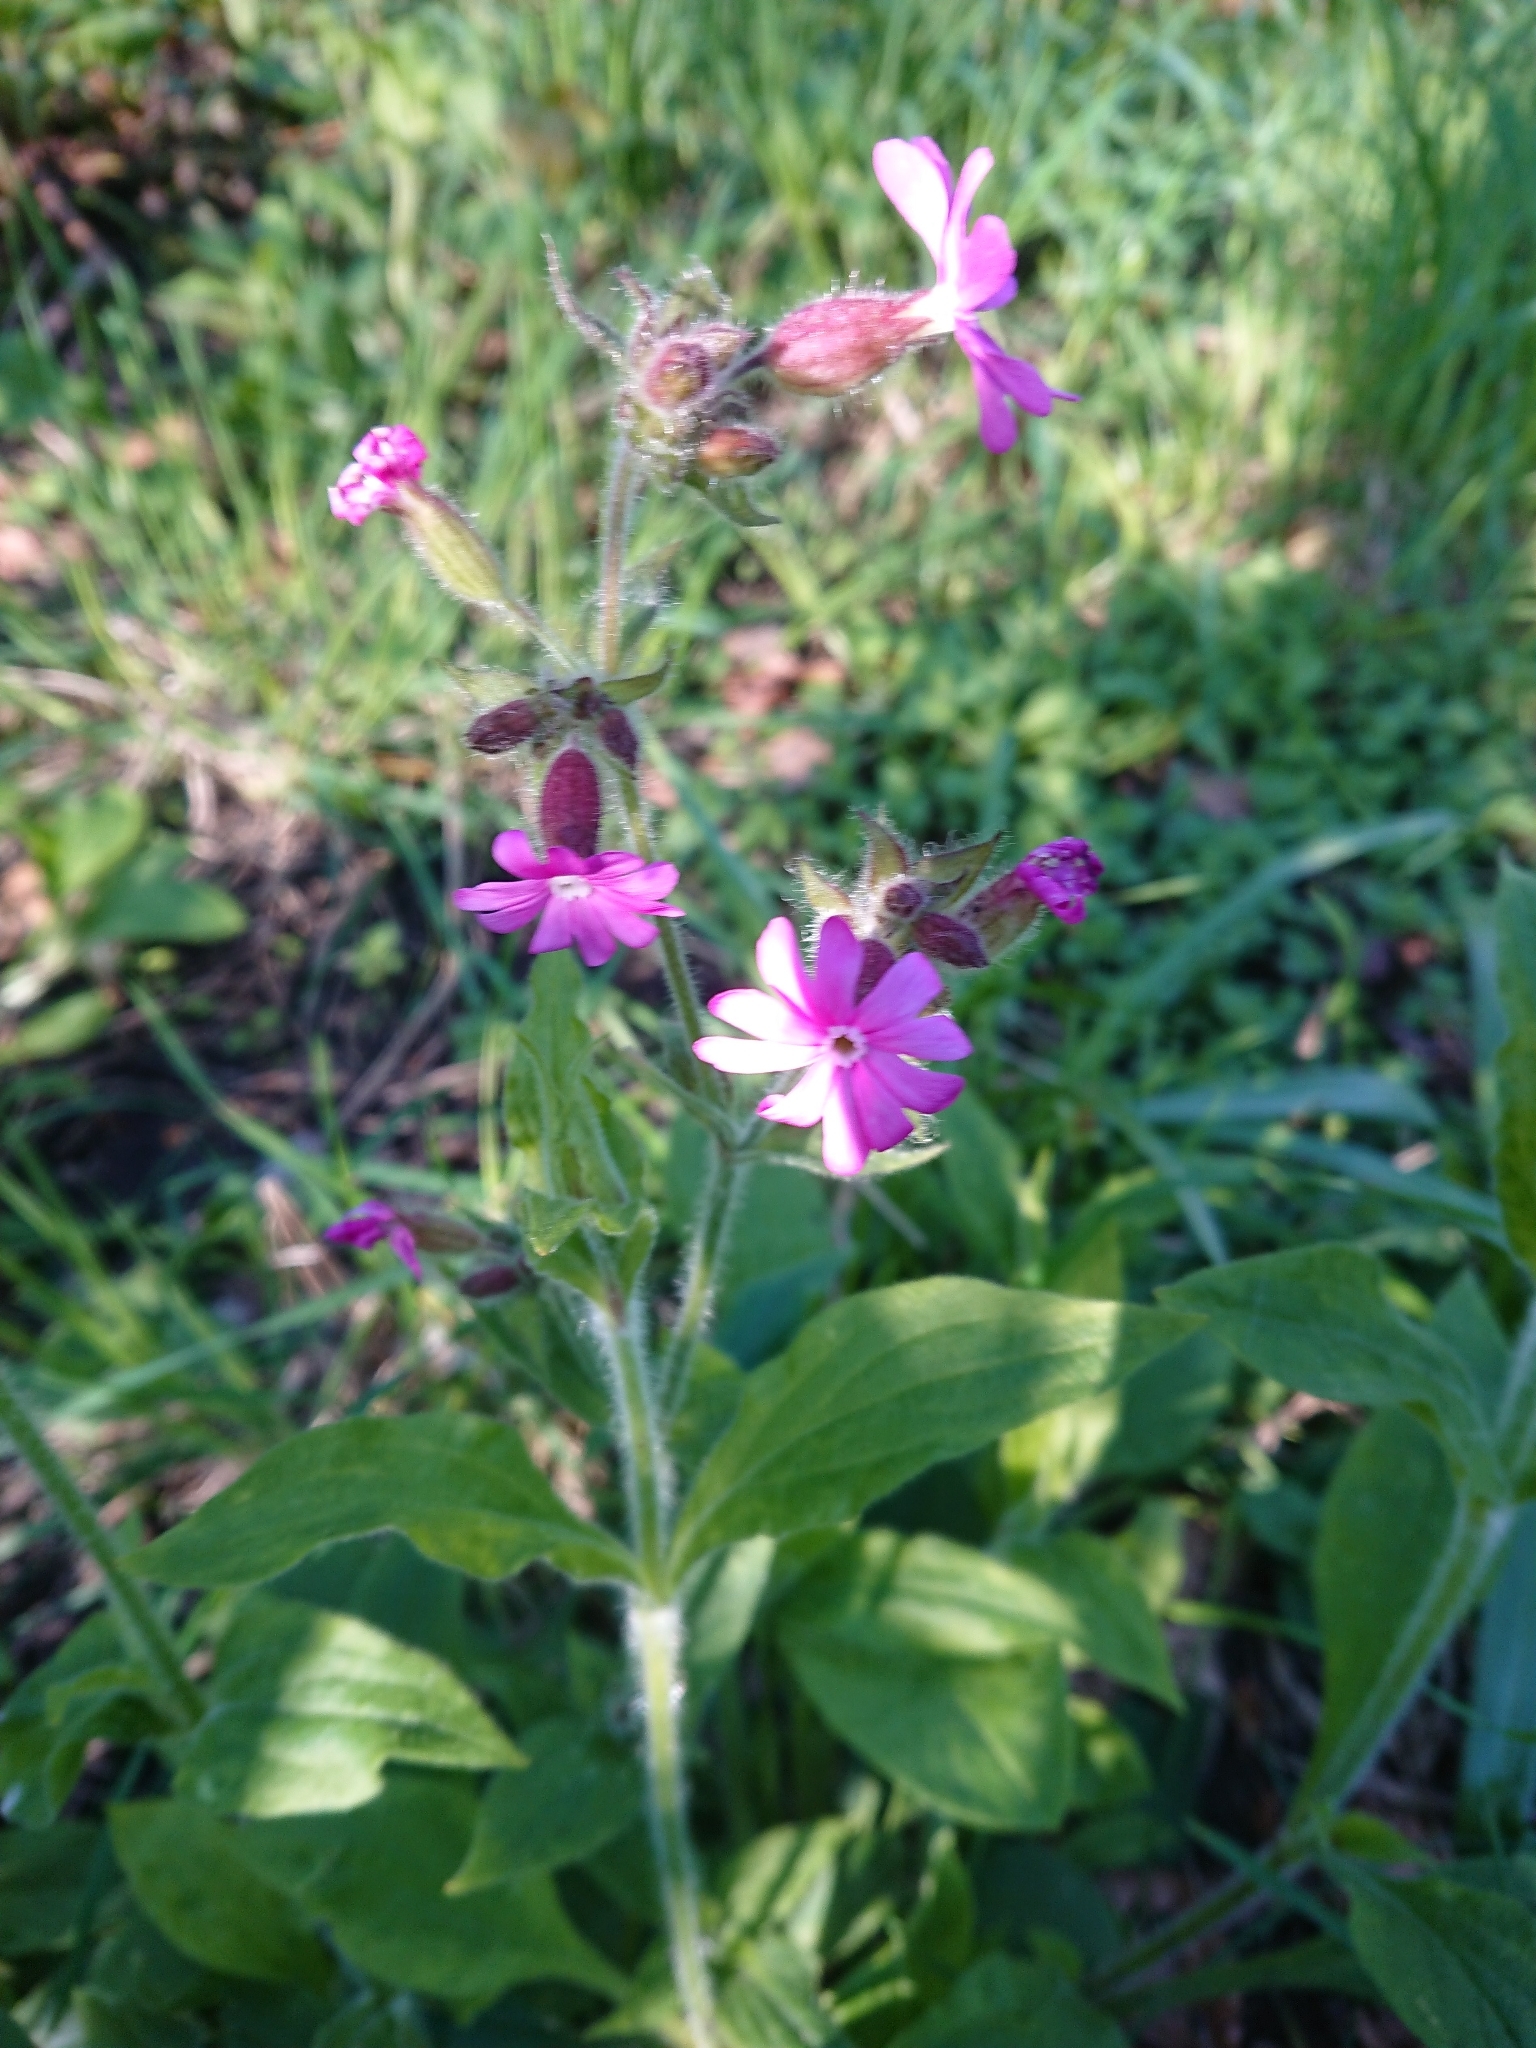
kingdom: Plantae
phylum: Tracheophyta
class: Magnoliopsida
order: Caryophyllales
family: Caryophyllaceae
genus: Silene
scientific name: Silene dioica
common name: Red campion
